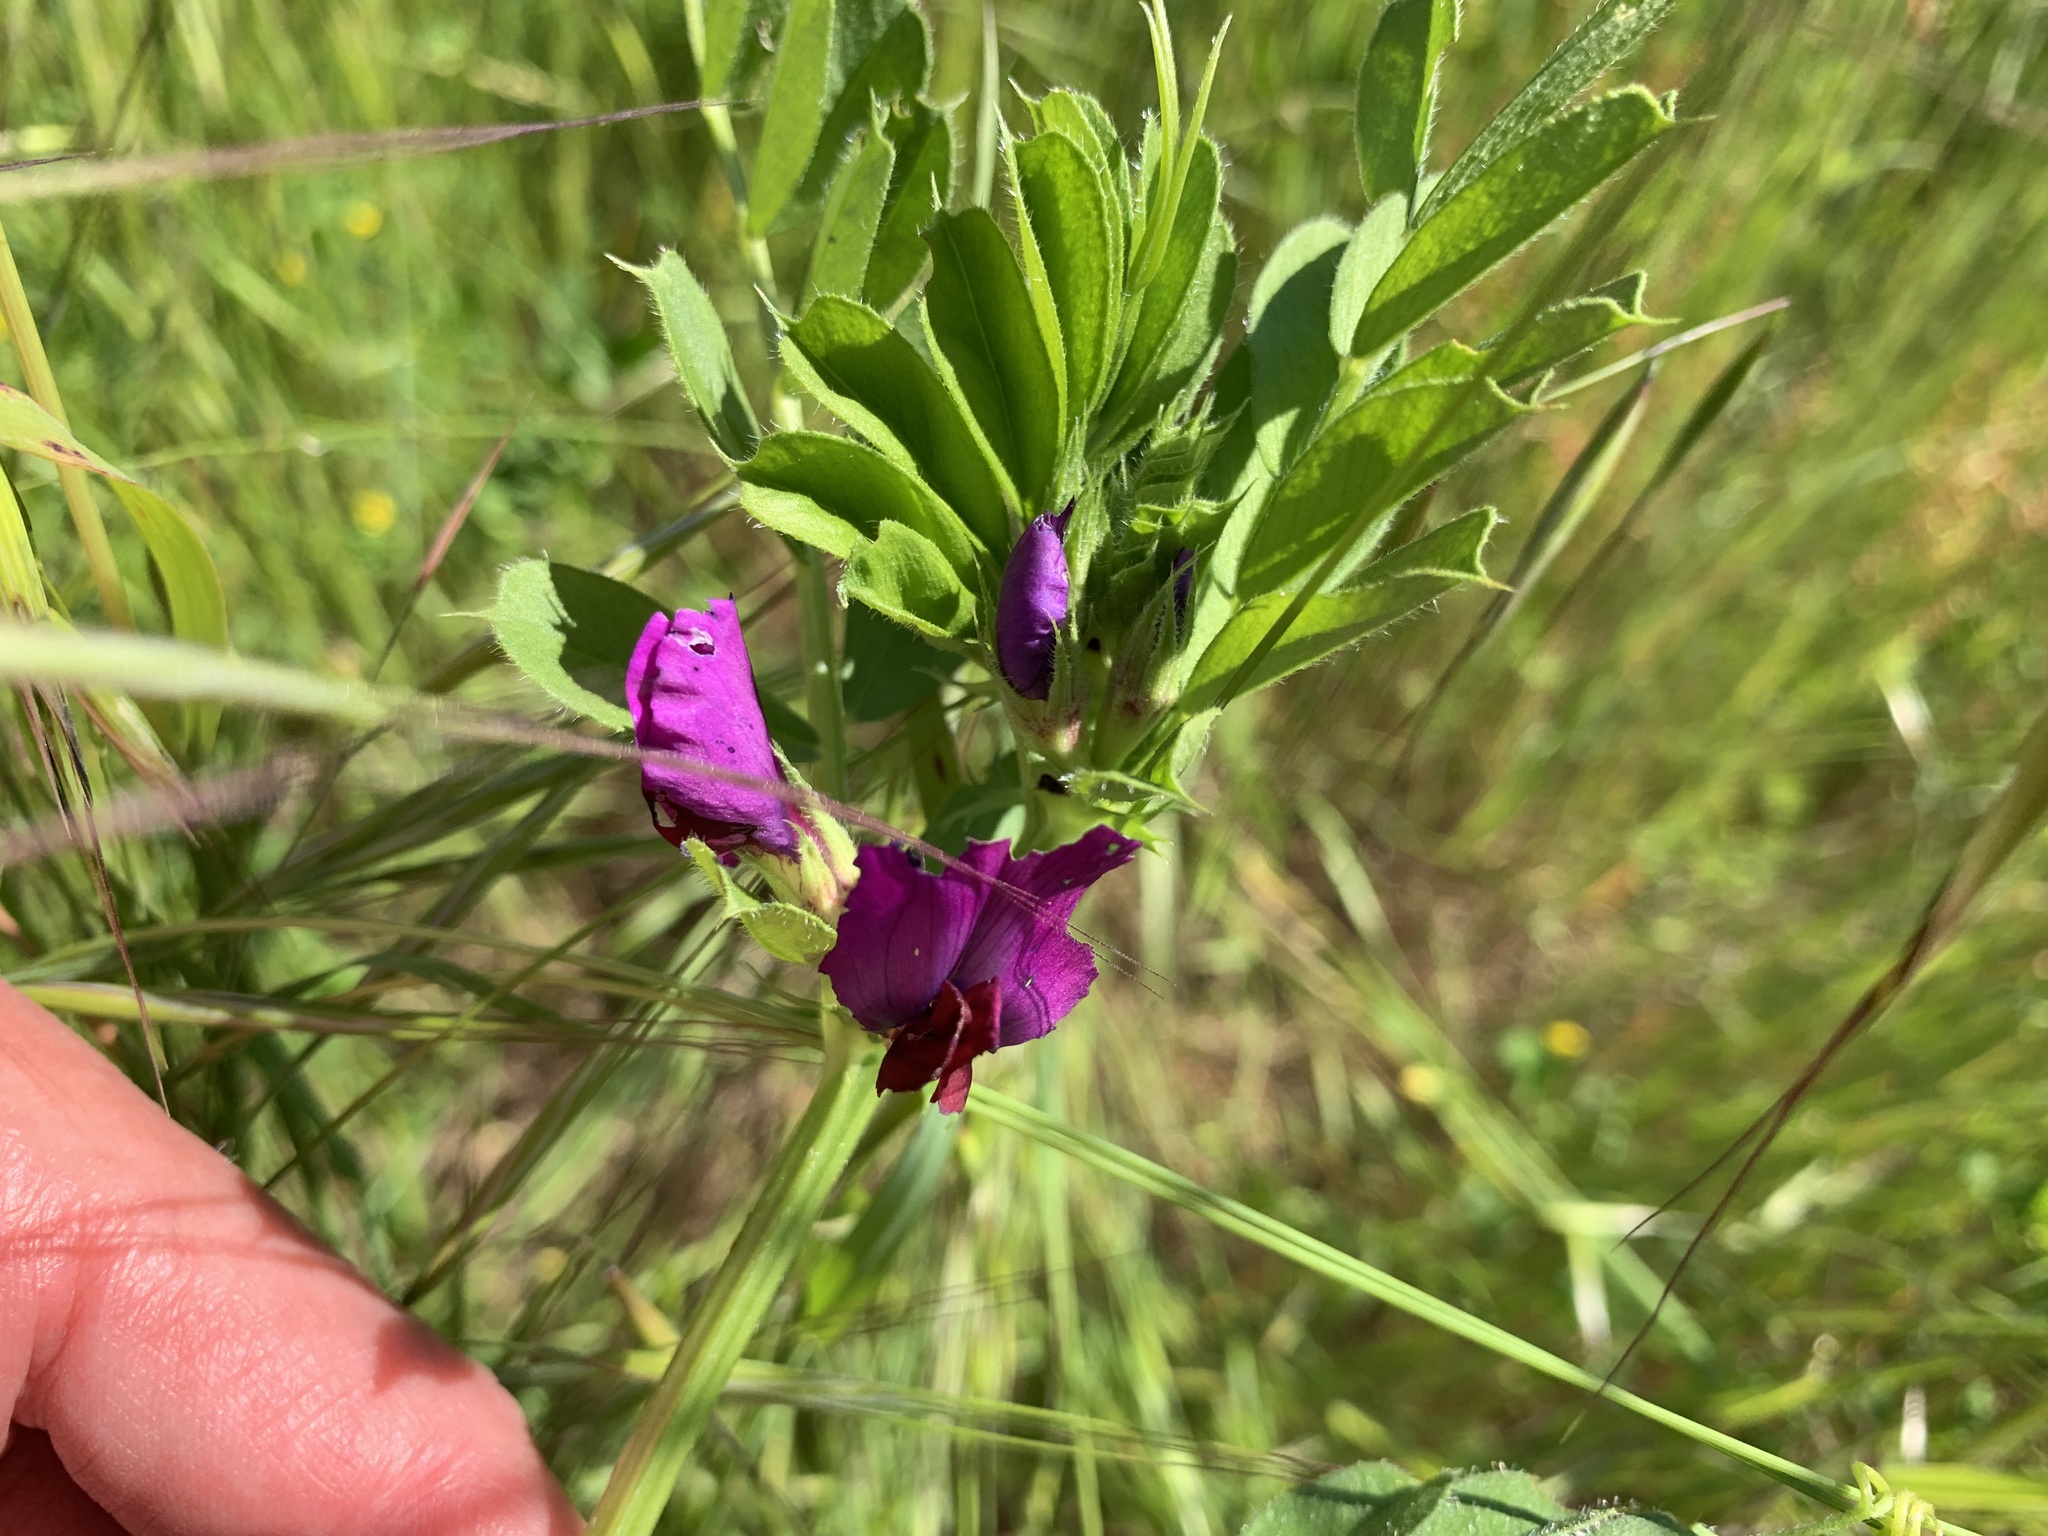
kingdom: Plantae
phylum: Tracheophyta
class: Magnoliopsida
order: Fabales
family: Fabaceae
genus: Vicia
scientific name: Vicia sativa
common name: Garden vetch
